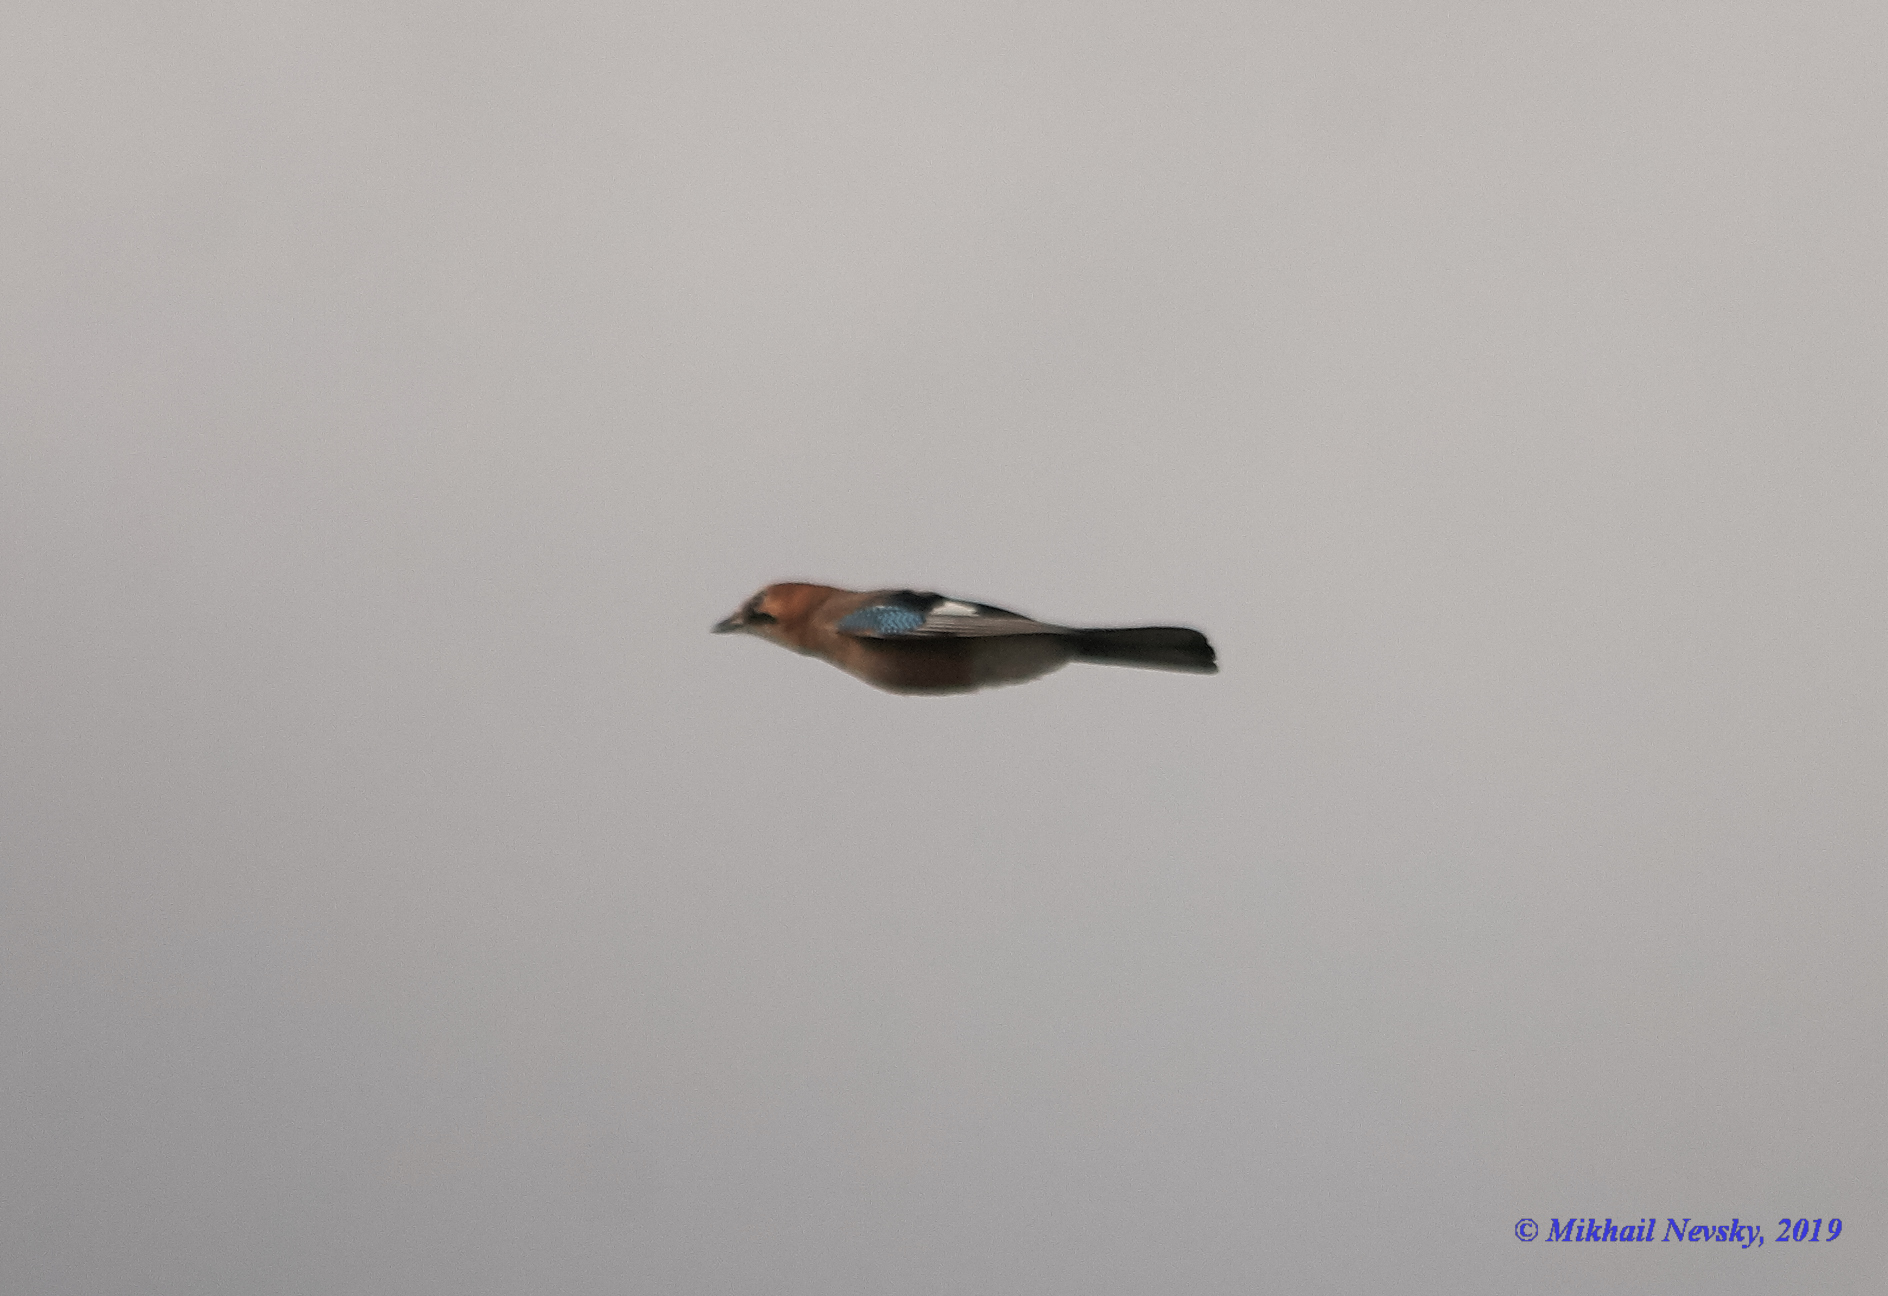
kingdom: Animalia
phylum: Chordata
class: Aves
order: Passeriformes
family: Corvidae
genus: Garrulus
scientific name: Garrulus glandarius
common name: Eurasian jay
